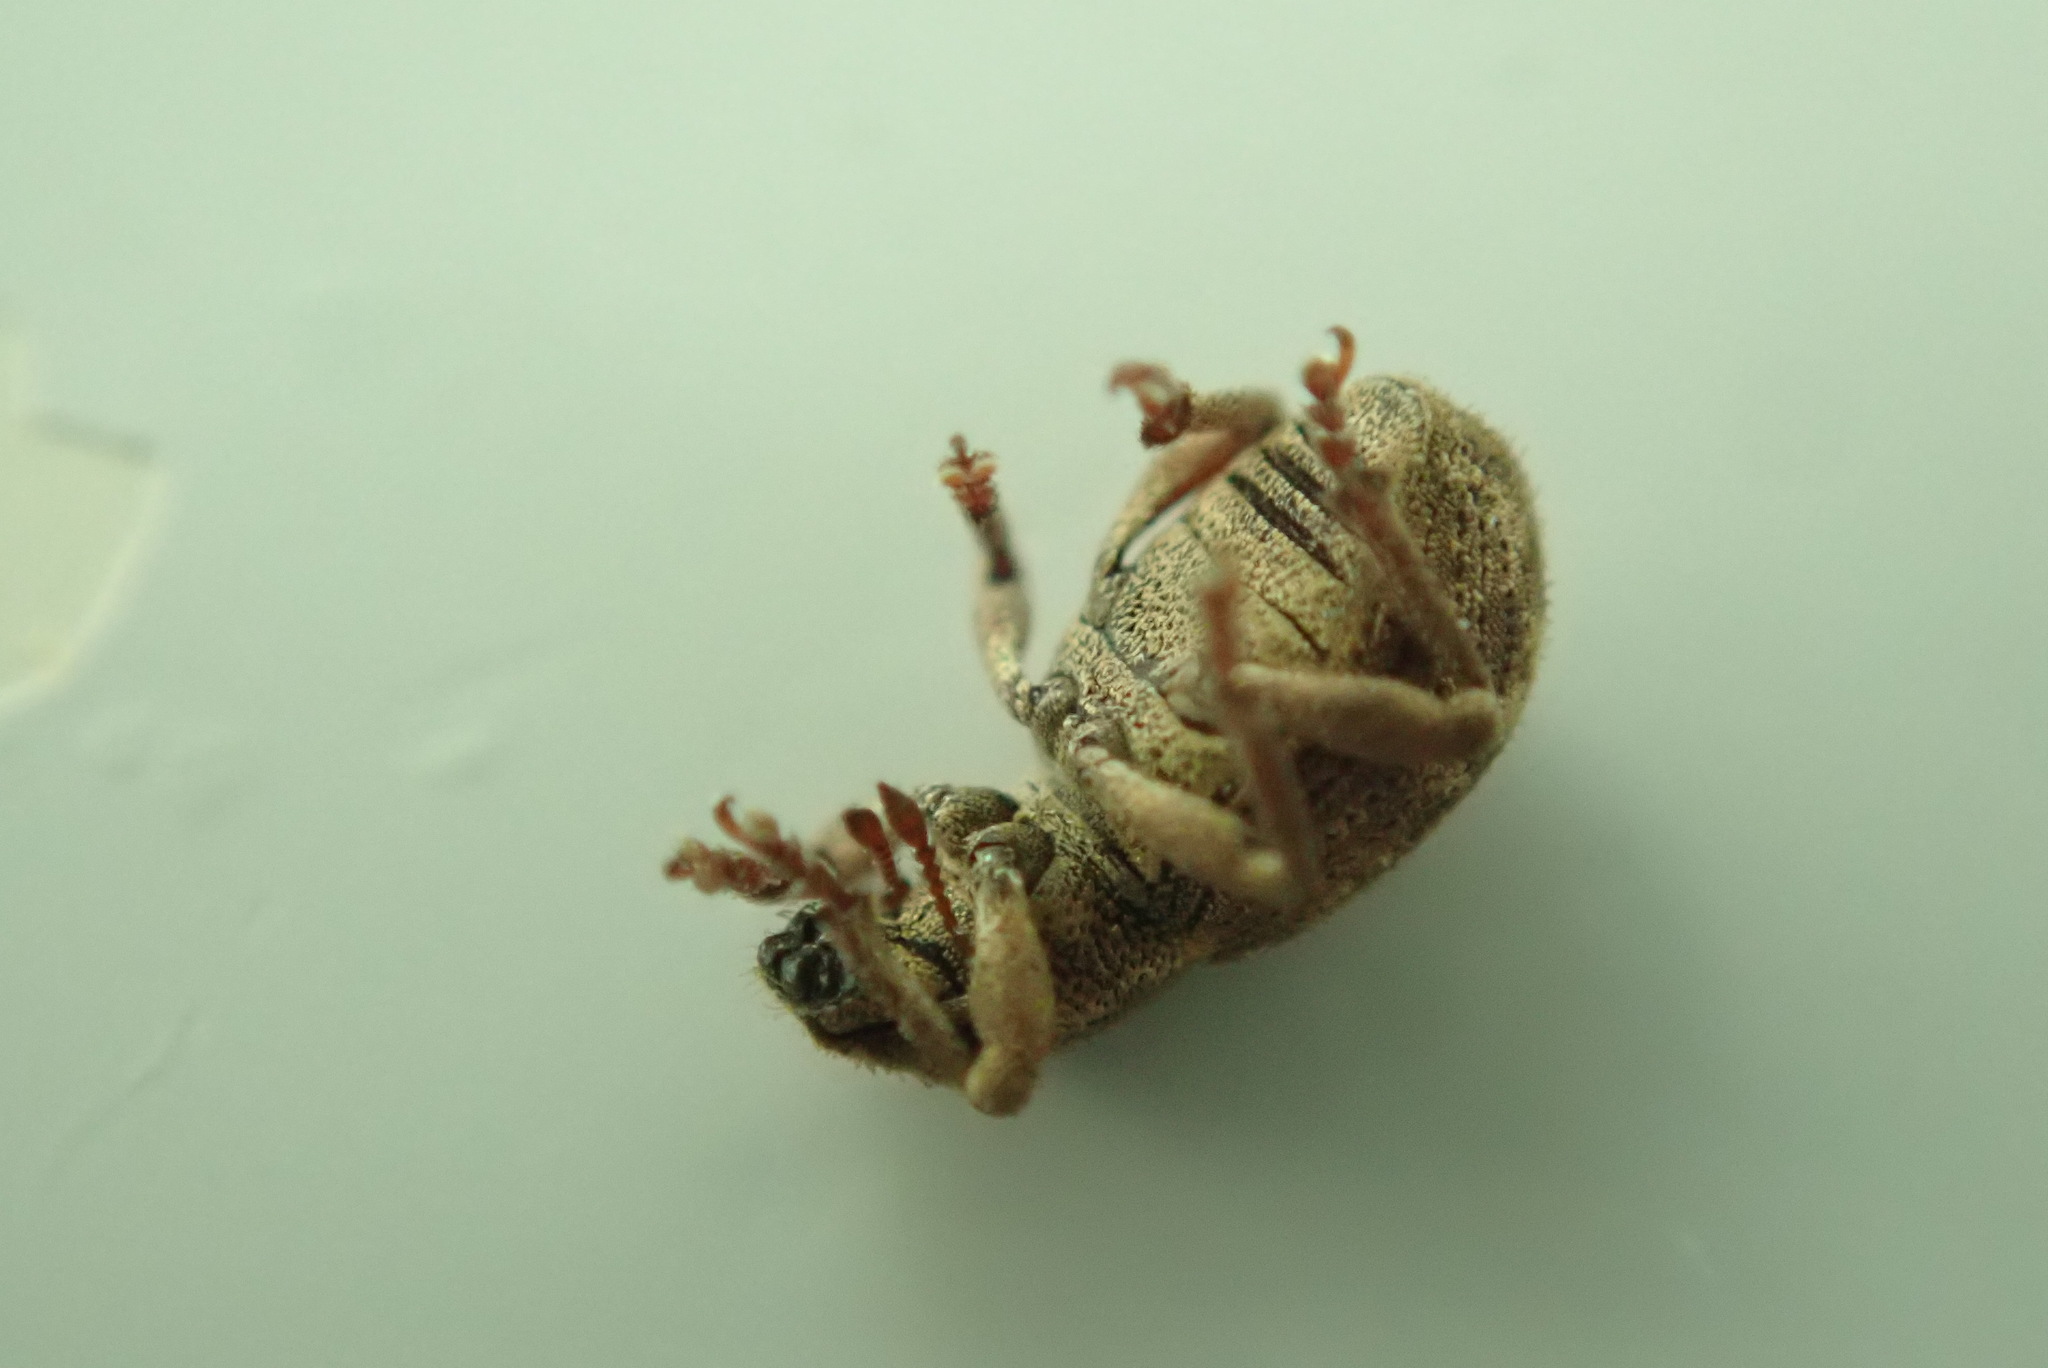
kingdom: Animalia
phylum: Arthropoda
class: Insecta
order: Coleoptera
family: Curculionidae
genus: Strophosoma
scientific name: Strophosoma capitatum
